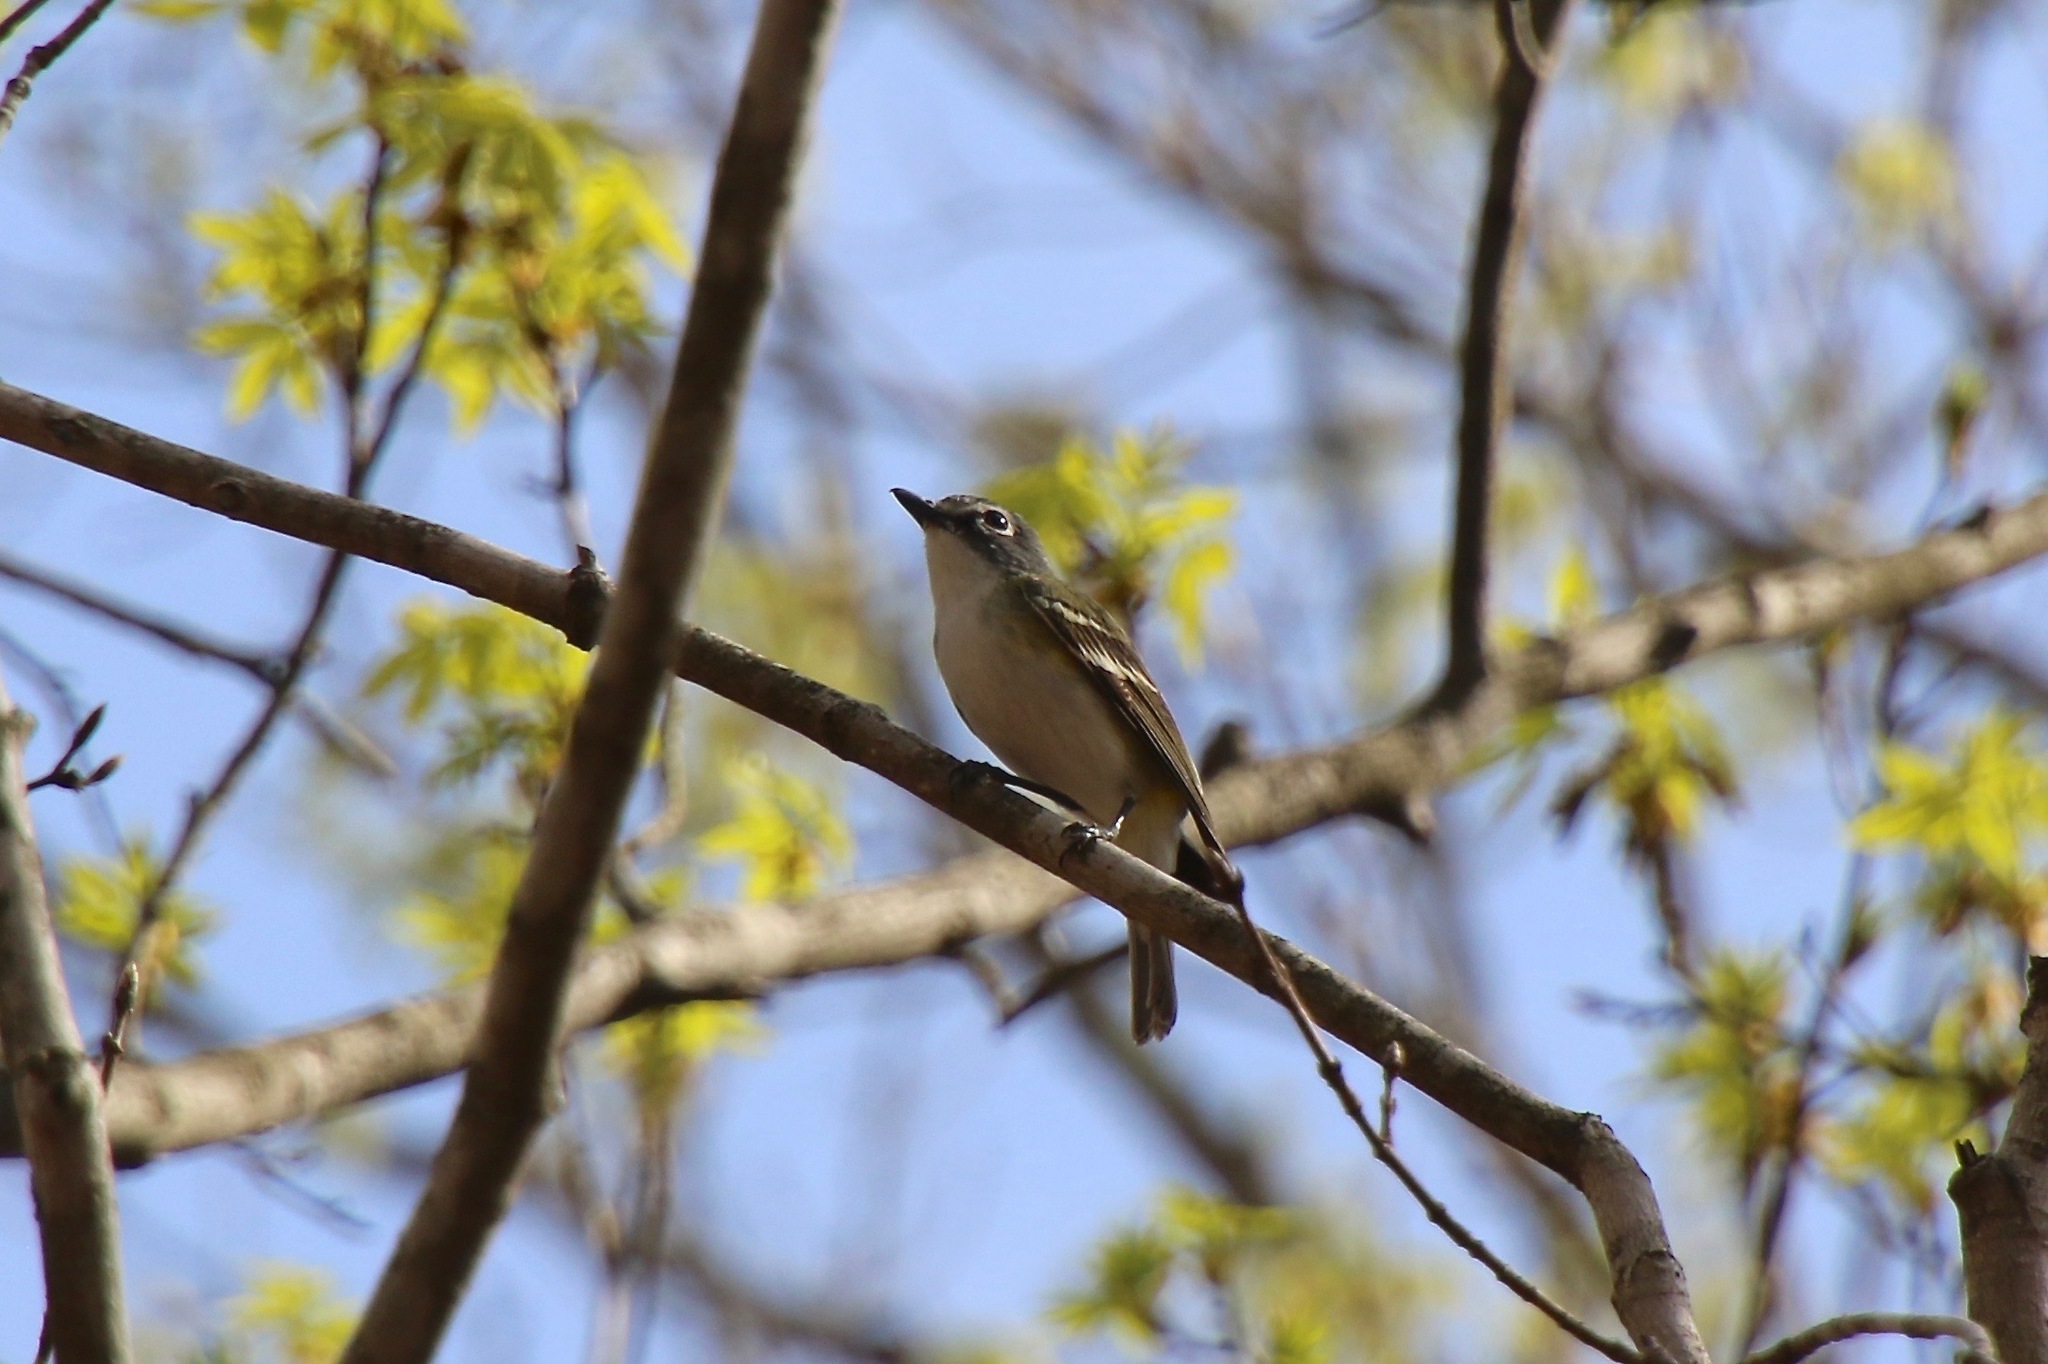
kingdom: Animalia
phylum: Chordata
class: Aves
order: Passeriformes
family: Vireonidae
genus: Vireo
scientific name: Vireo solitarius
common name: Blue-headed vireo
